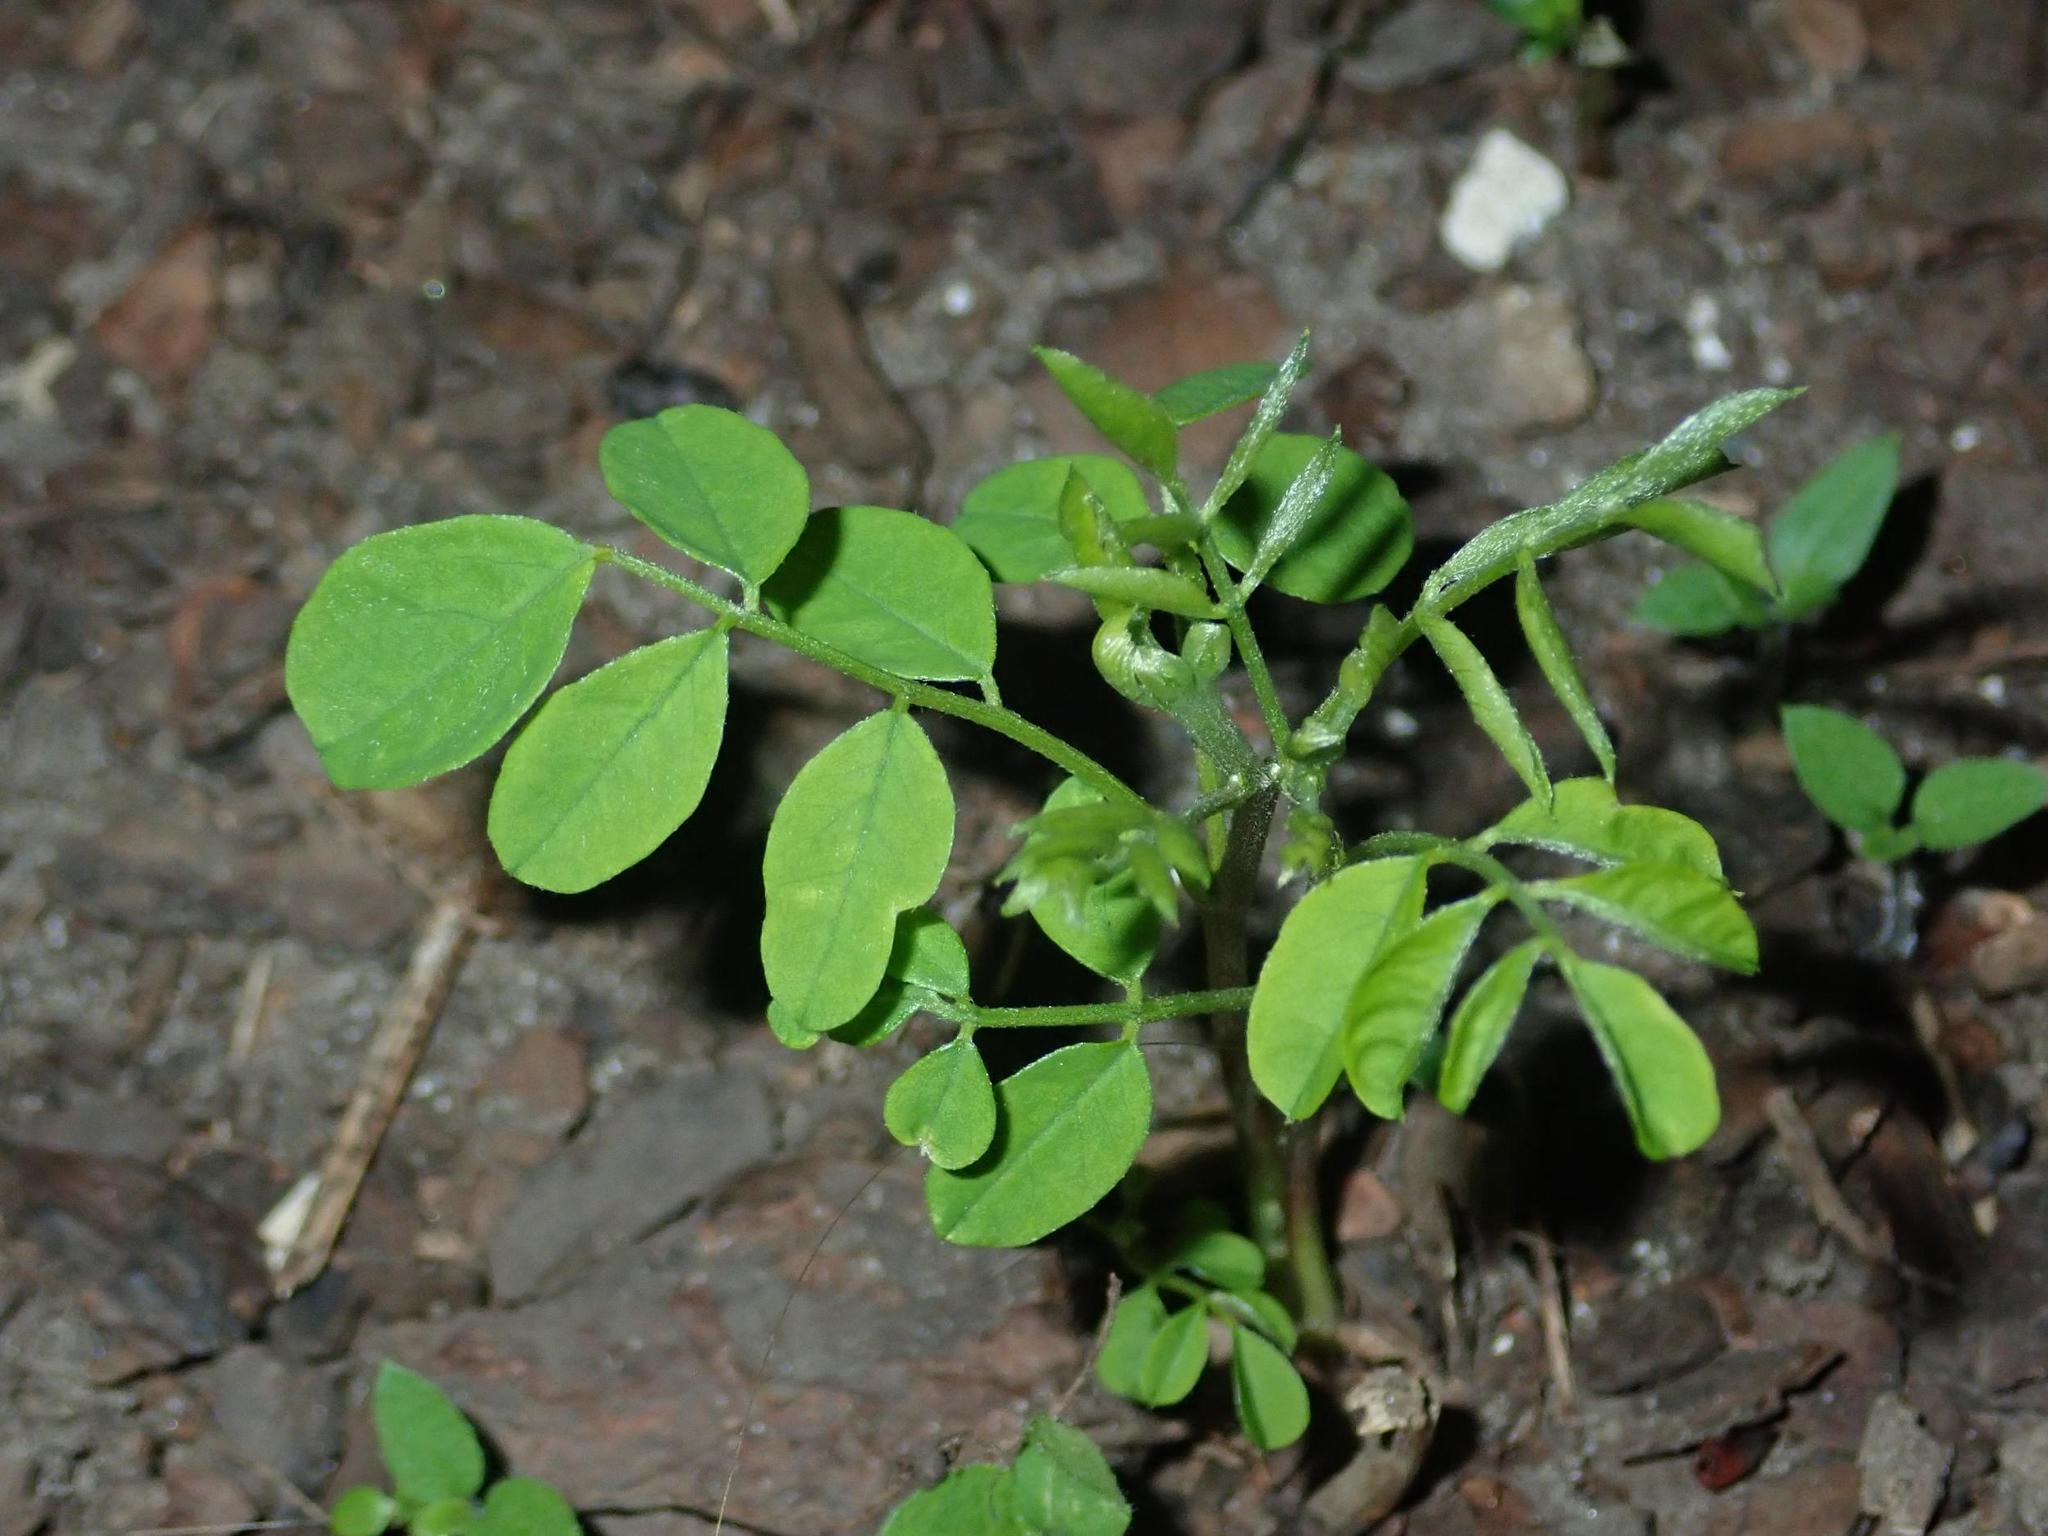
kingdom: Plantae
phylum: Tracheophyta
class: Magnoliopsida
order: Fabales
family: Fabaceae
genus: Robinia
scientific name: Robinia pseudoacacia
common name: Black locust
